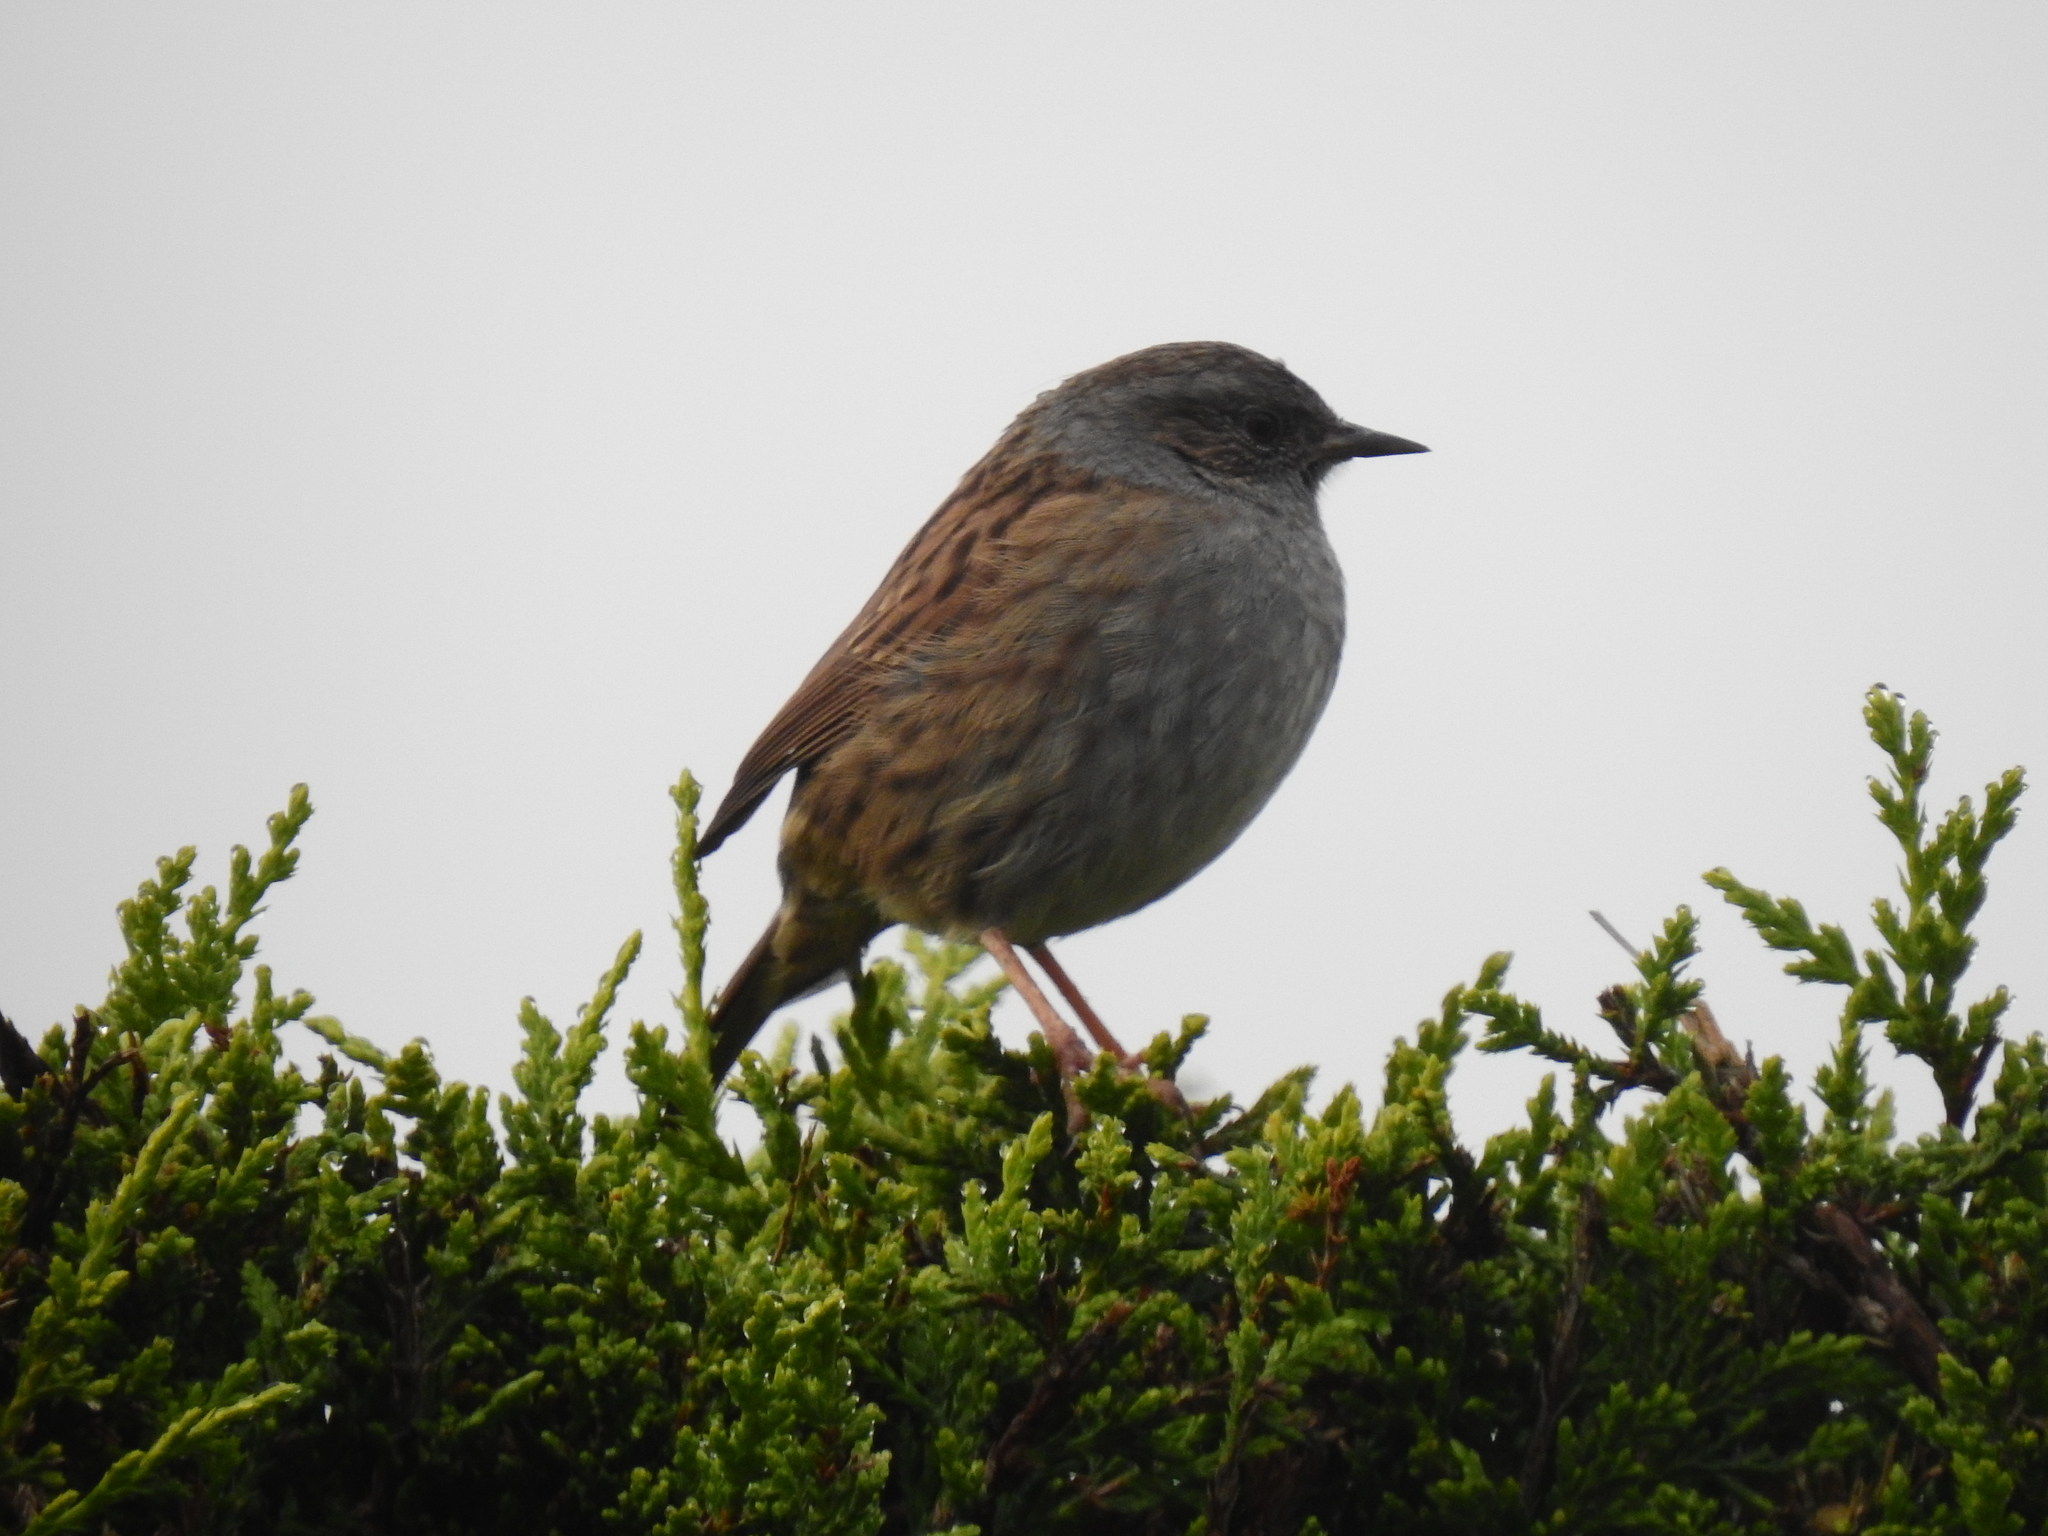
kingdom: Animalia
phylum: Chordata
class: Aves
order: Passeriformes
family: Prunellidae
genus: Prunella
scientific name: Prunella modularis
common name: Dunnock
